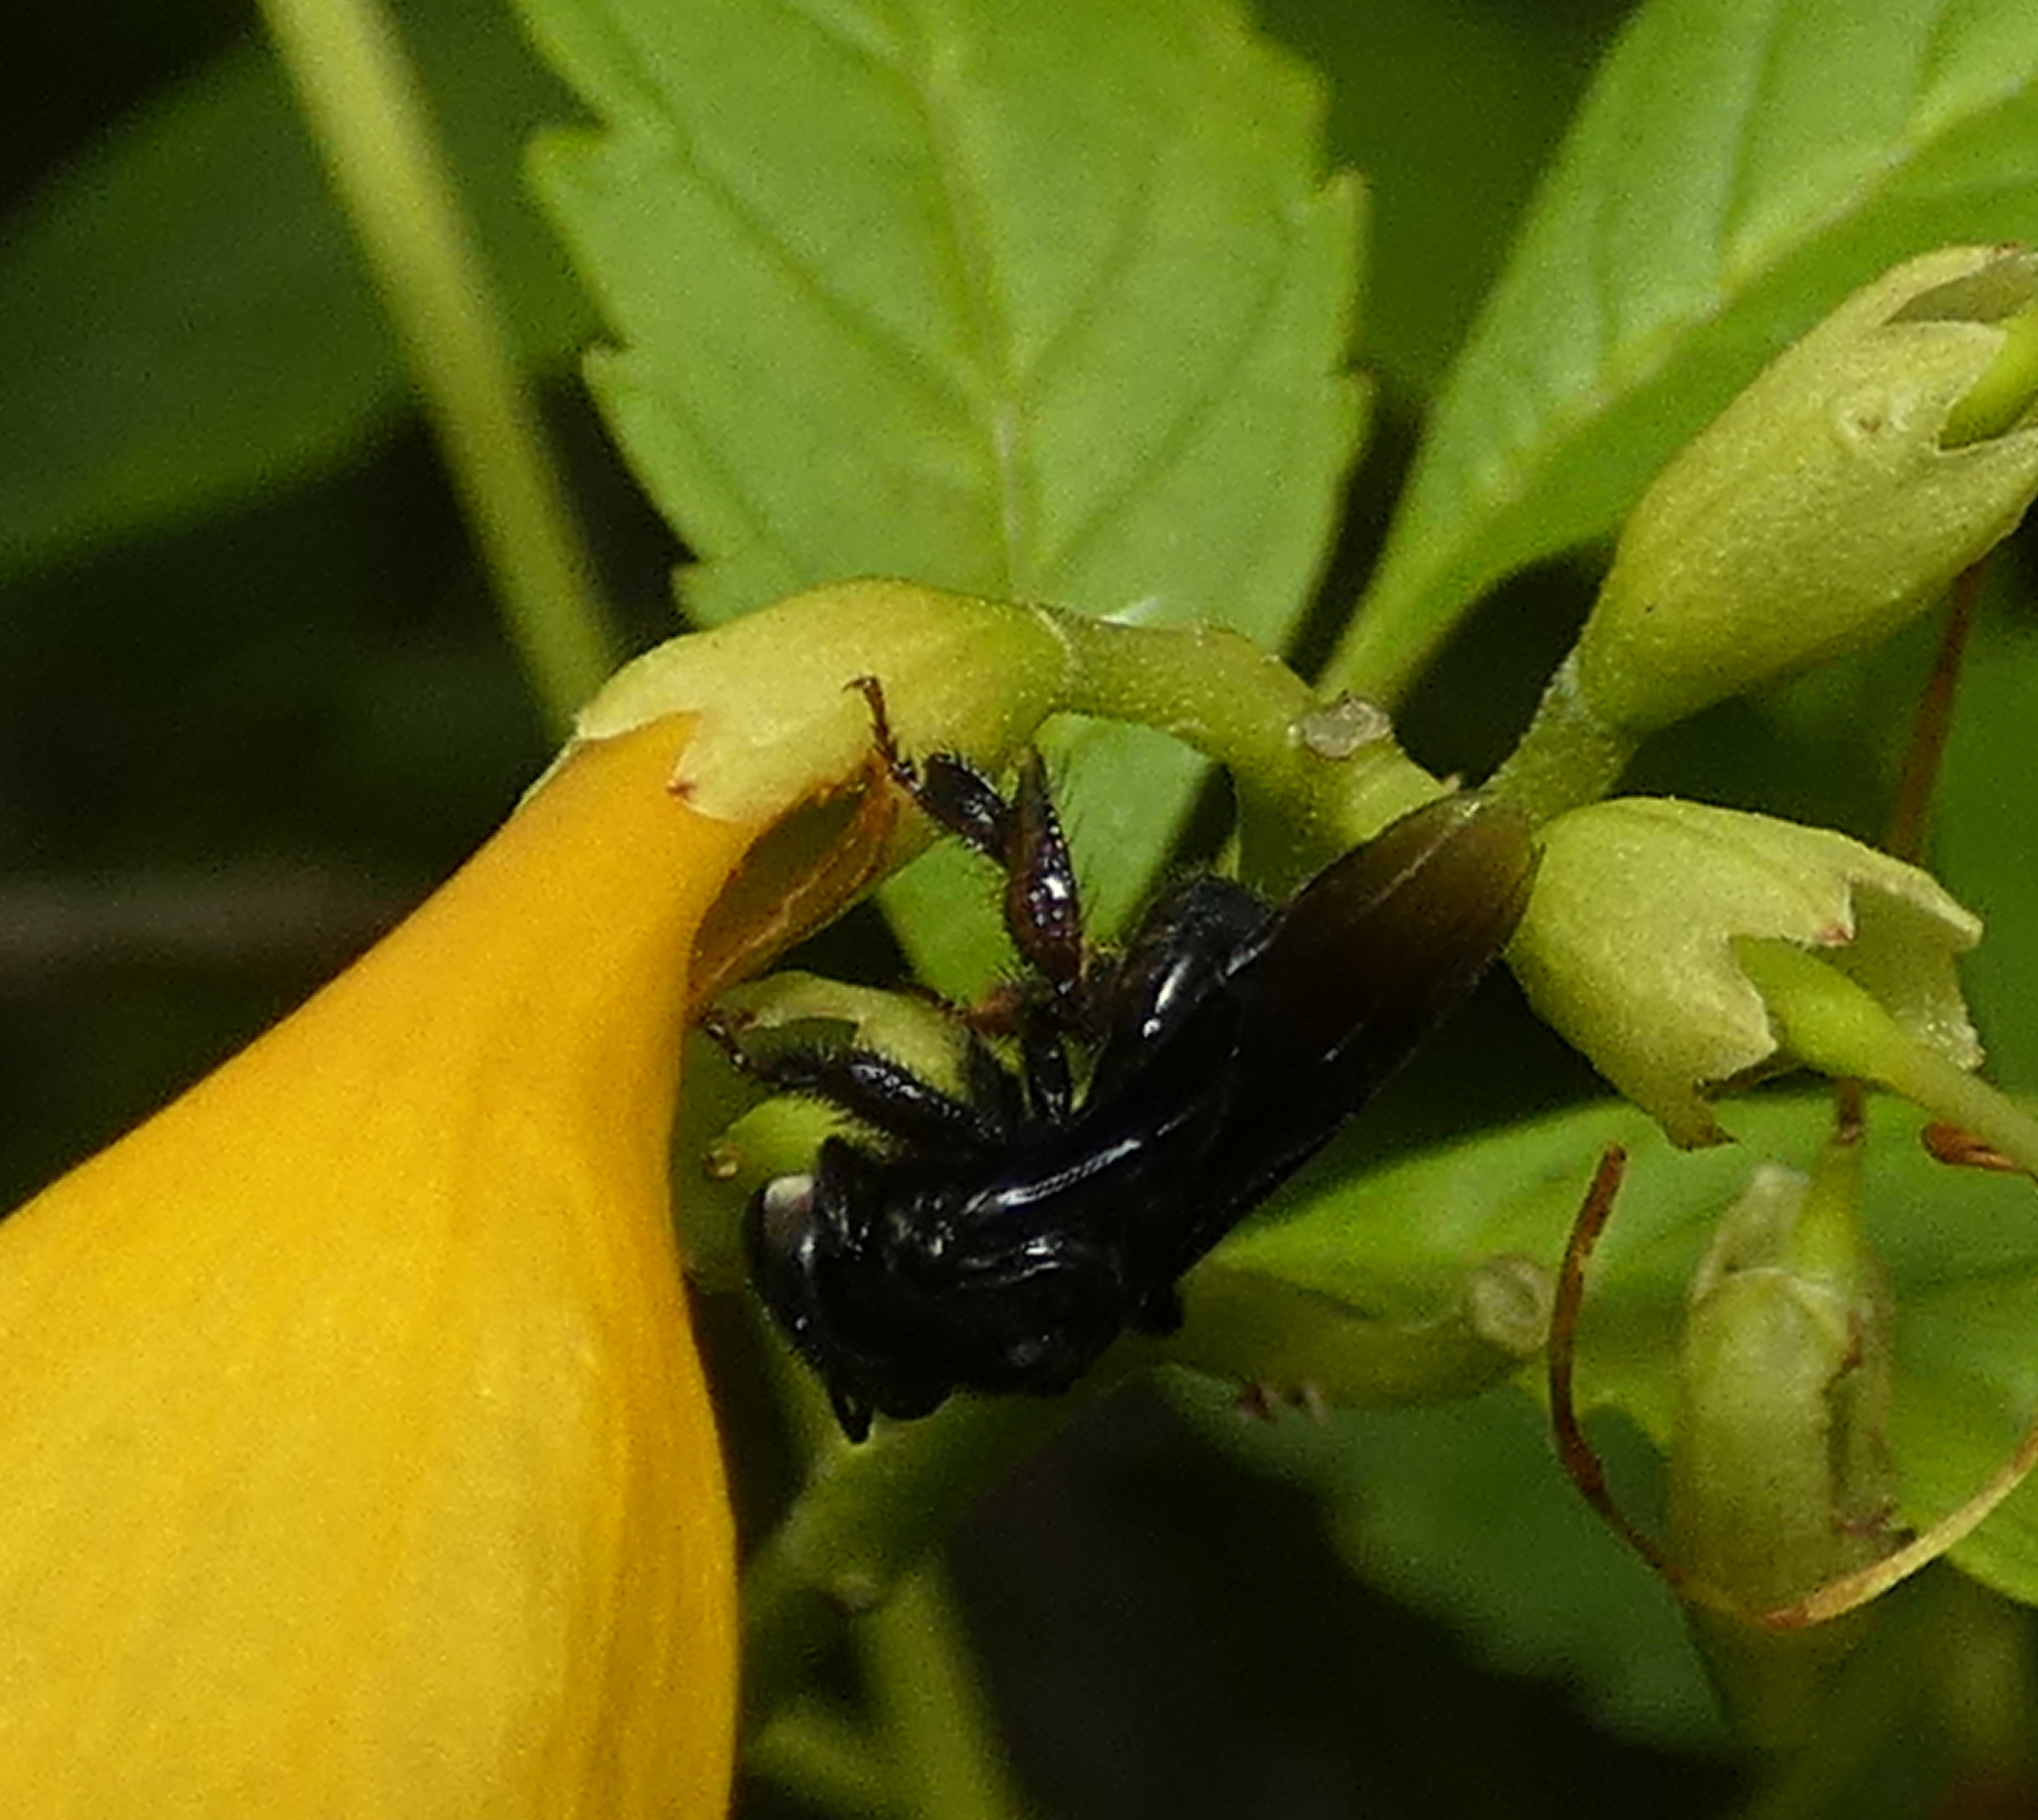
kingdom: Animalia
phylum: Arthropoda
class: Insecta
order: Hymenoptera
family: Apidae
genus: Trigona
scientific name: Trigona spinipes
